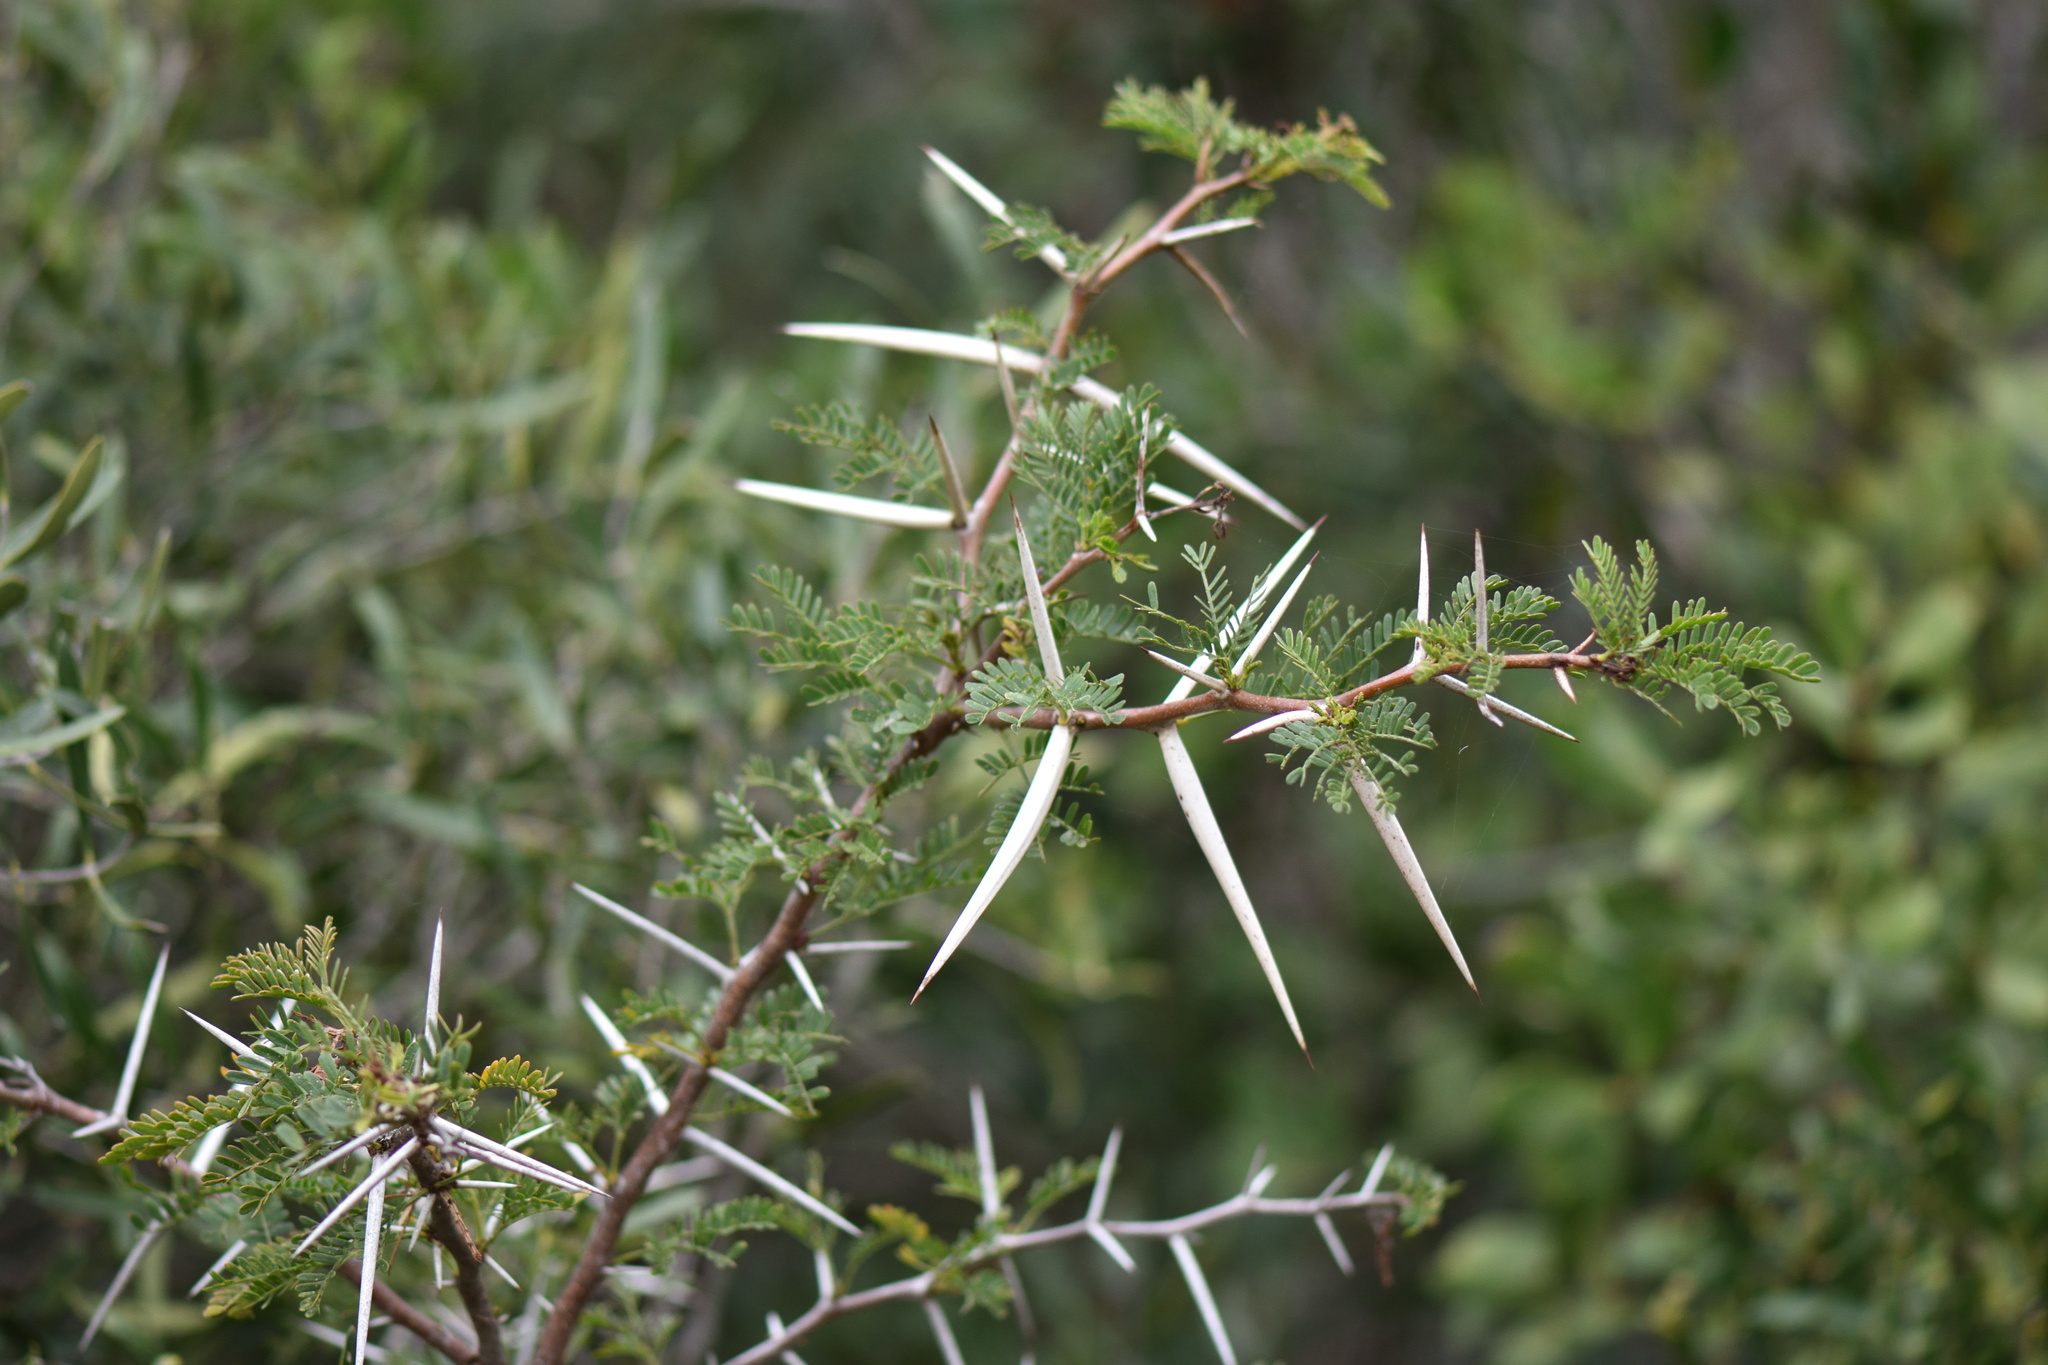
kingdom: Plantae
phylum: Tracheophyta
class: Magnoliopsida
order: Fabales
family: Fabaceae
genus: Vachellia
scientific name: Vachellia karroo
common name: Sweet thorn
